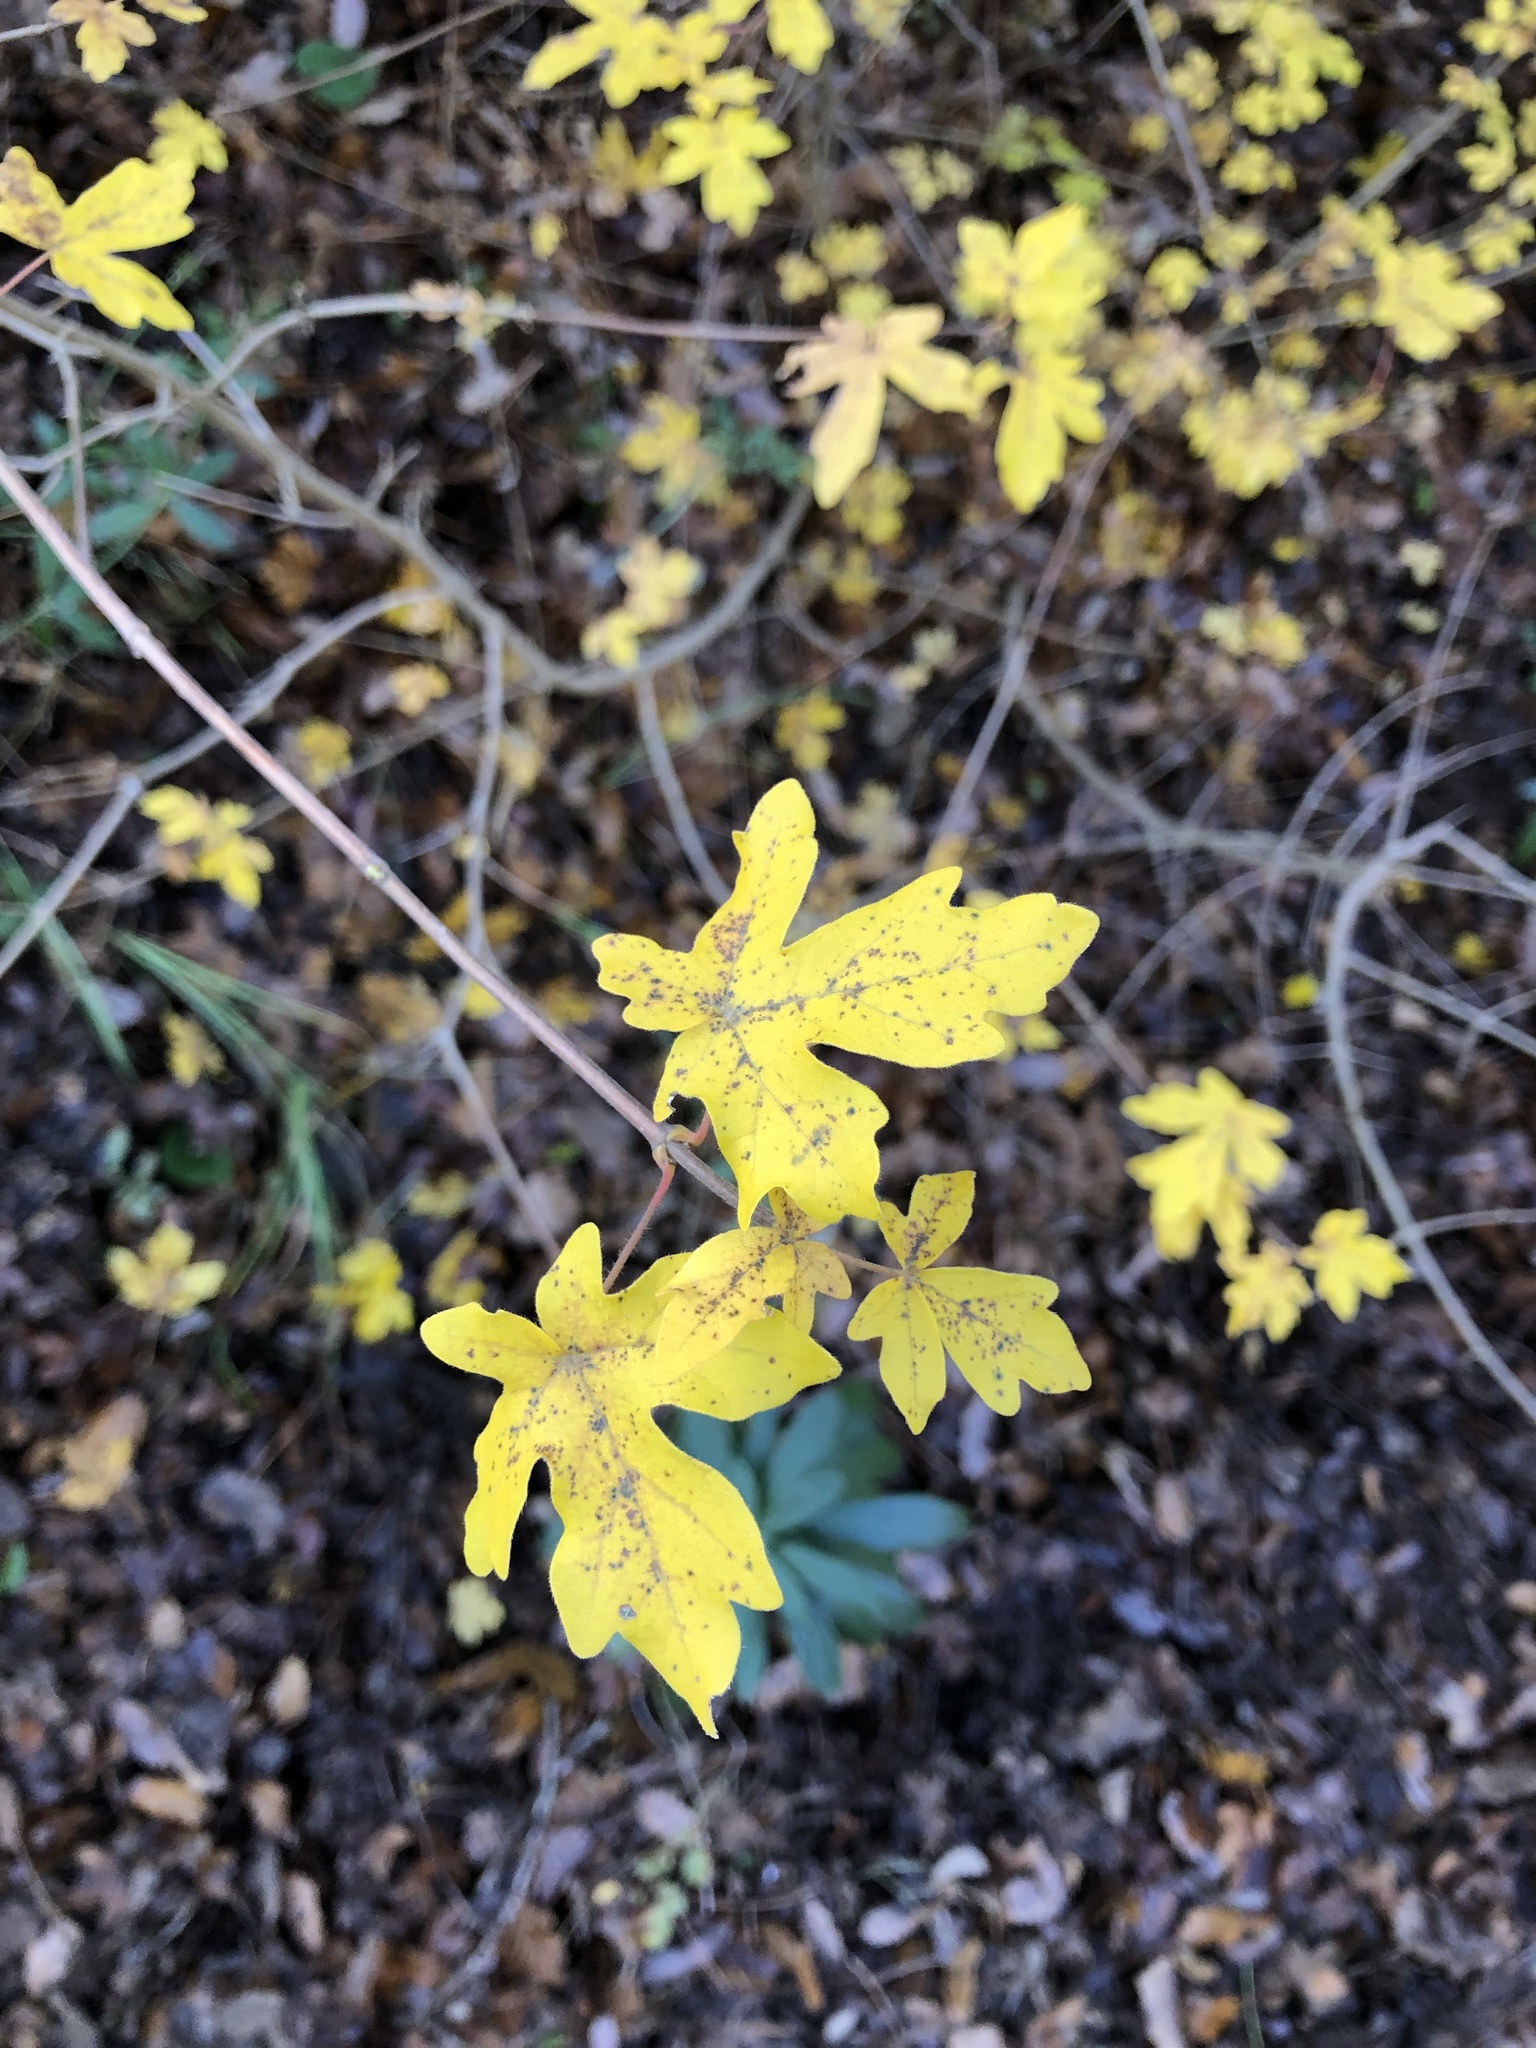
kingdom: Plantae
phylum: Tracheophyta
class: Magnoliopsida
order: Sapindales
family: Sapindaceae
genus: Acer
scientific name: Acer campestre
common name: Field maple
